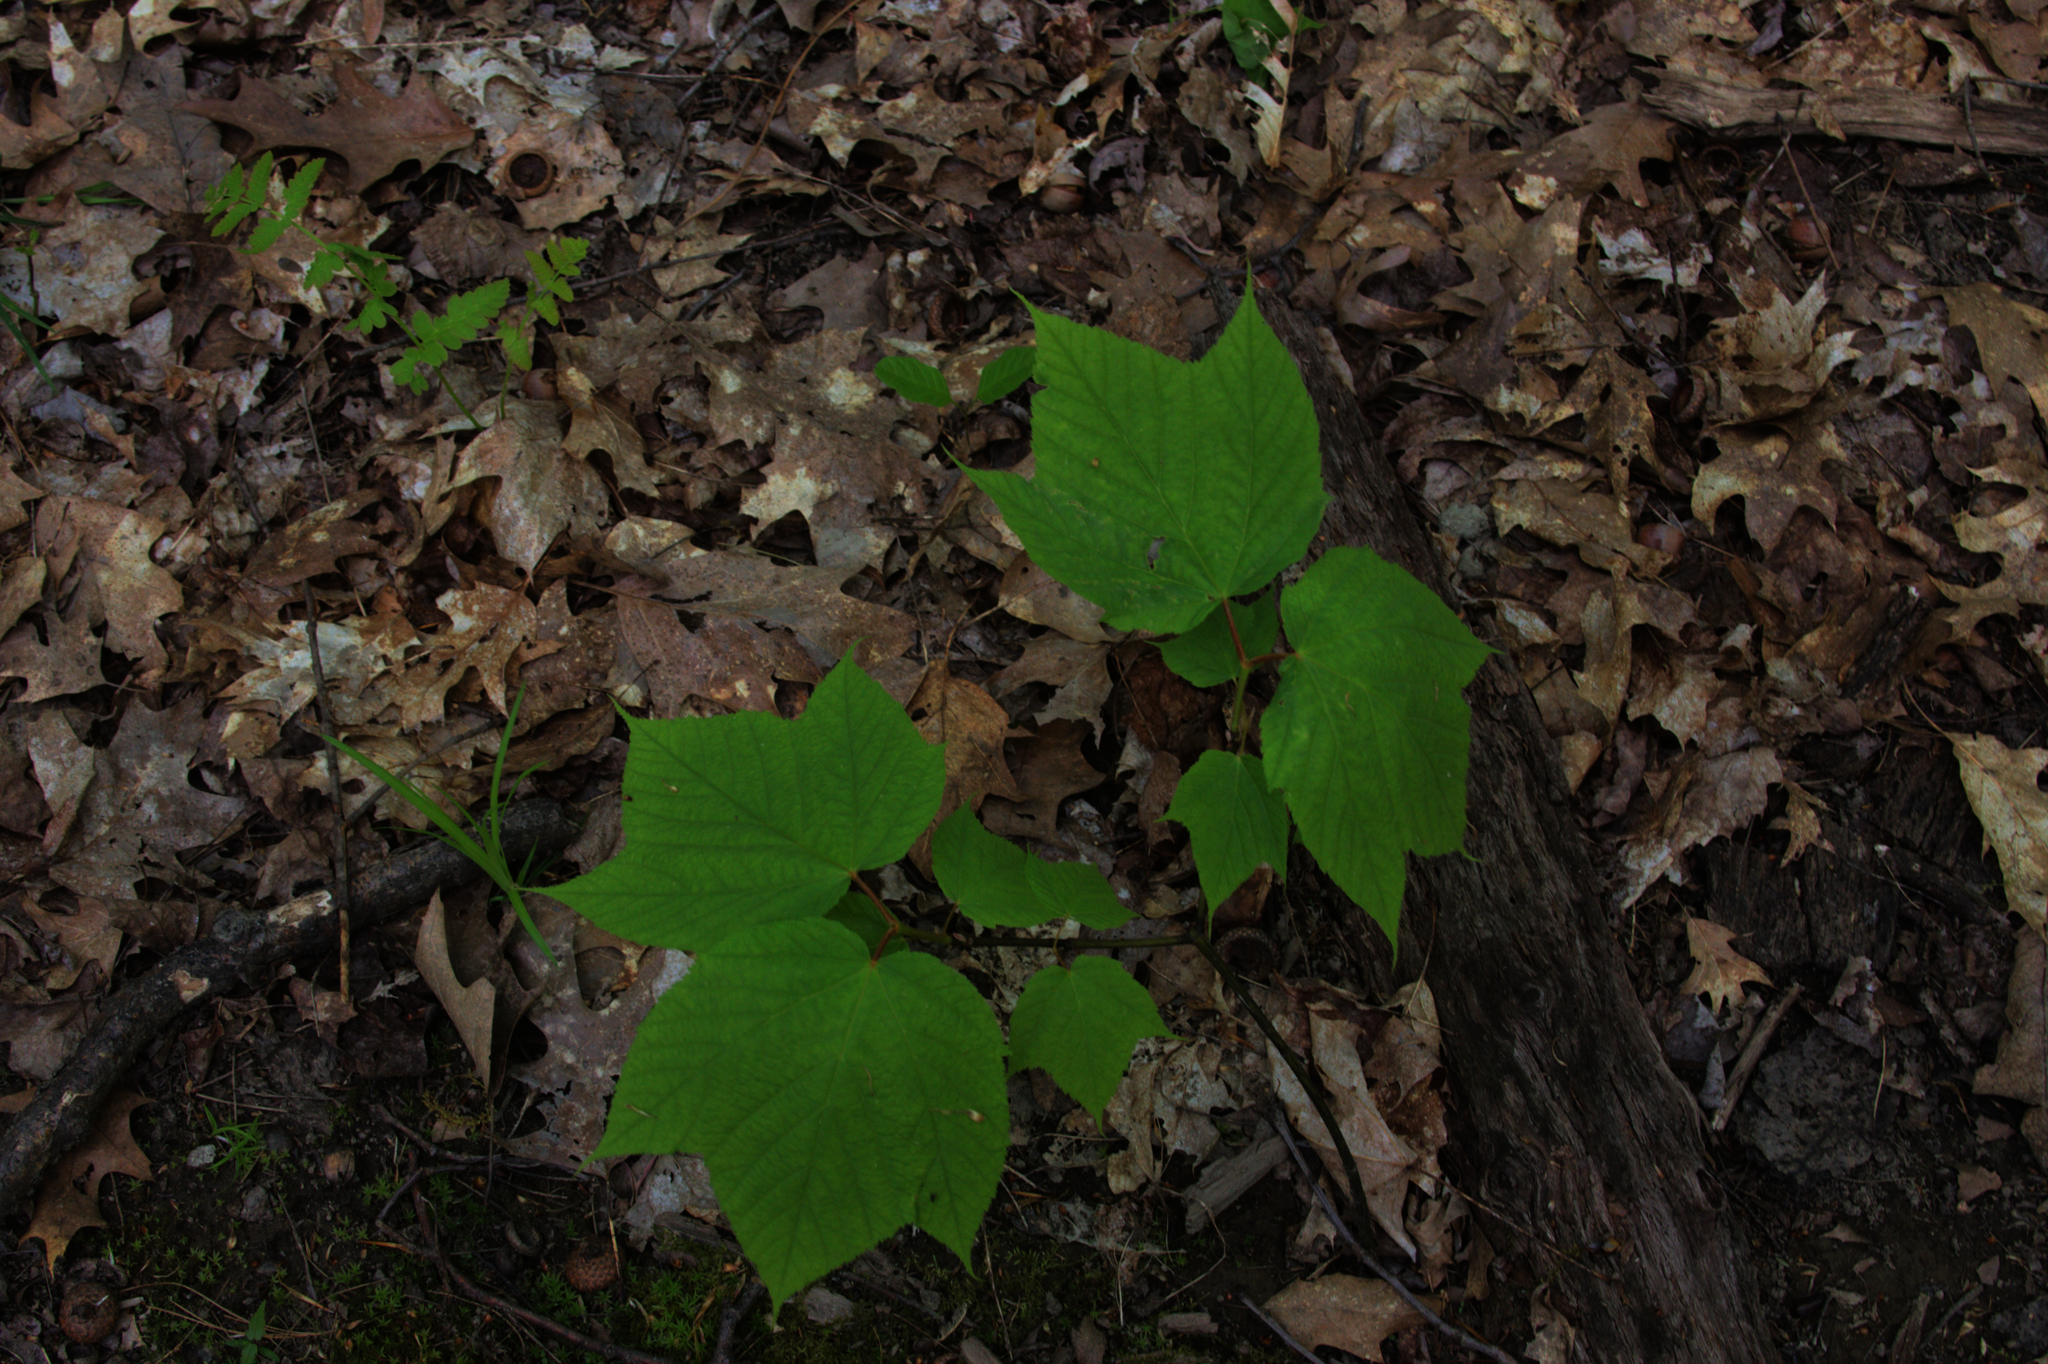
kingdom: Plantae
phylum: Tracheophyta
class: Magnoliopsida
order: Sapindales
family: Sapindaceae
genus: Acer
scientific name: Acer pensylvanicum
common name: Moosewood
